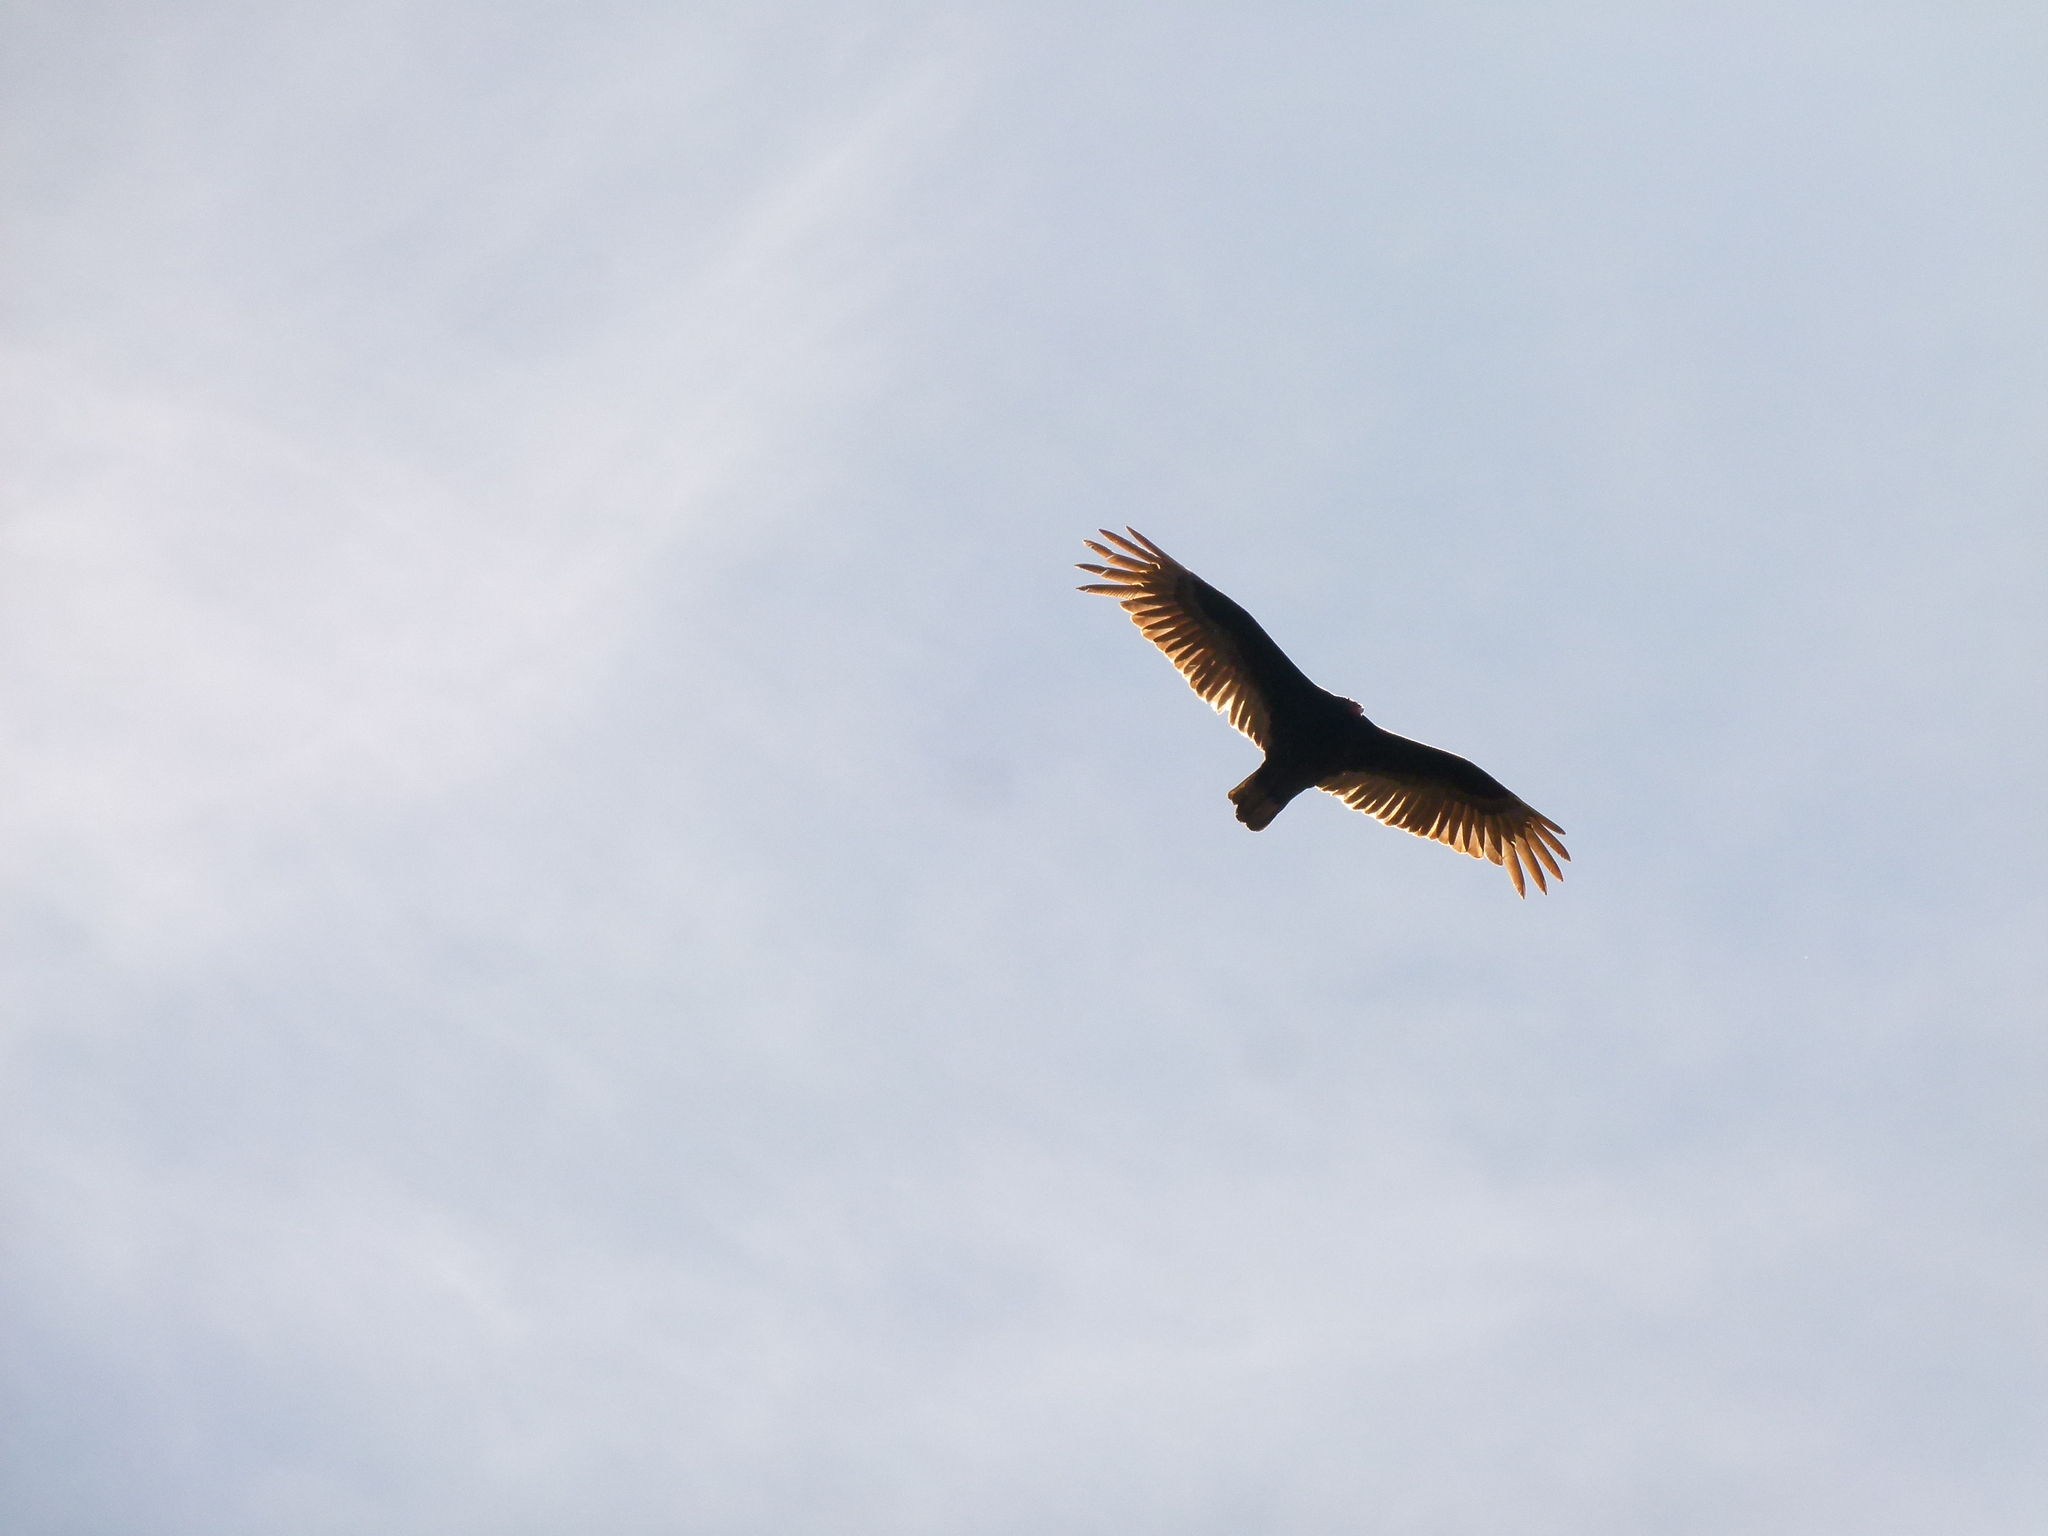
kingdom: Animalia
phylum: Chordata
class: Aves
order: Accipitriformes
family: Cathartidae
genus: Cathartes
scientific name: Cathartes aura
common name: Turkey vulture
